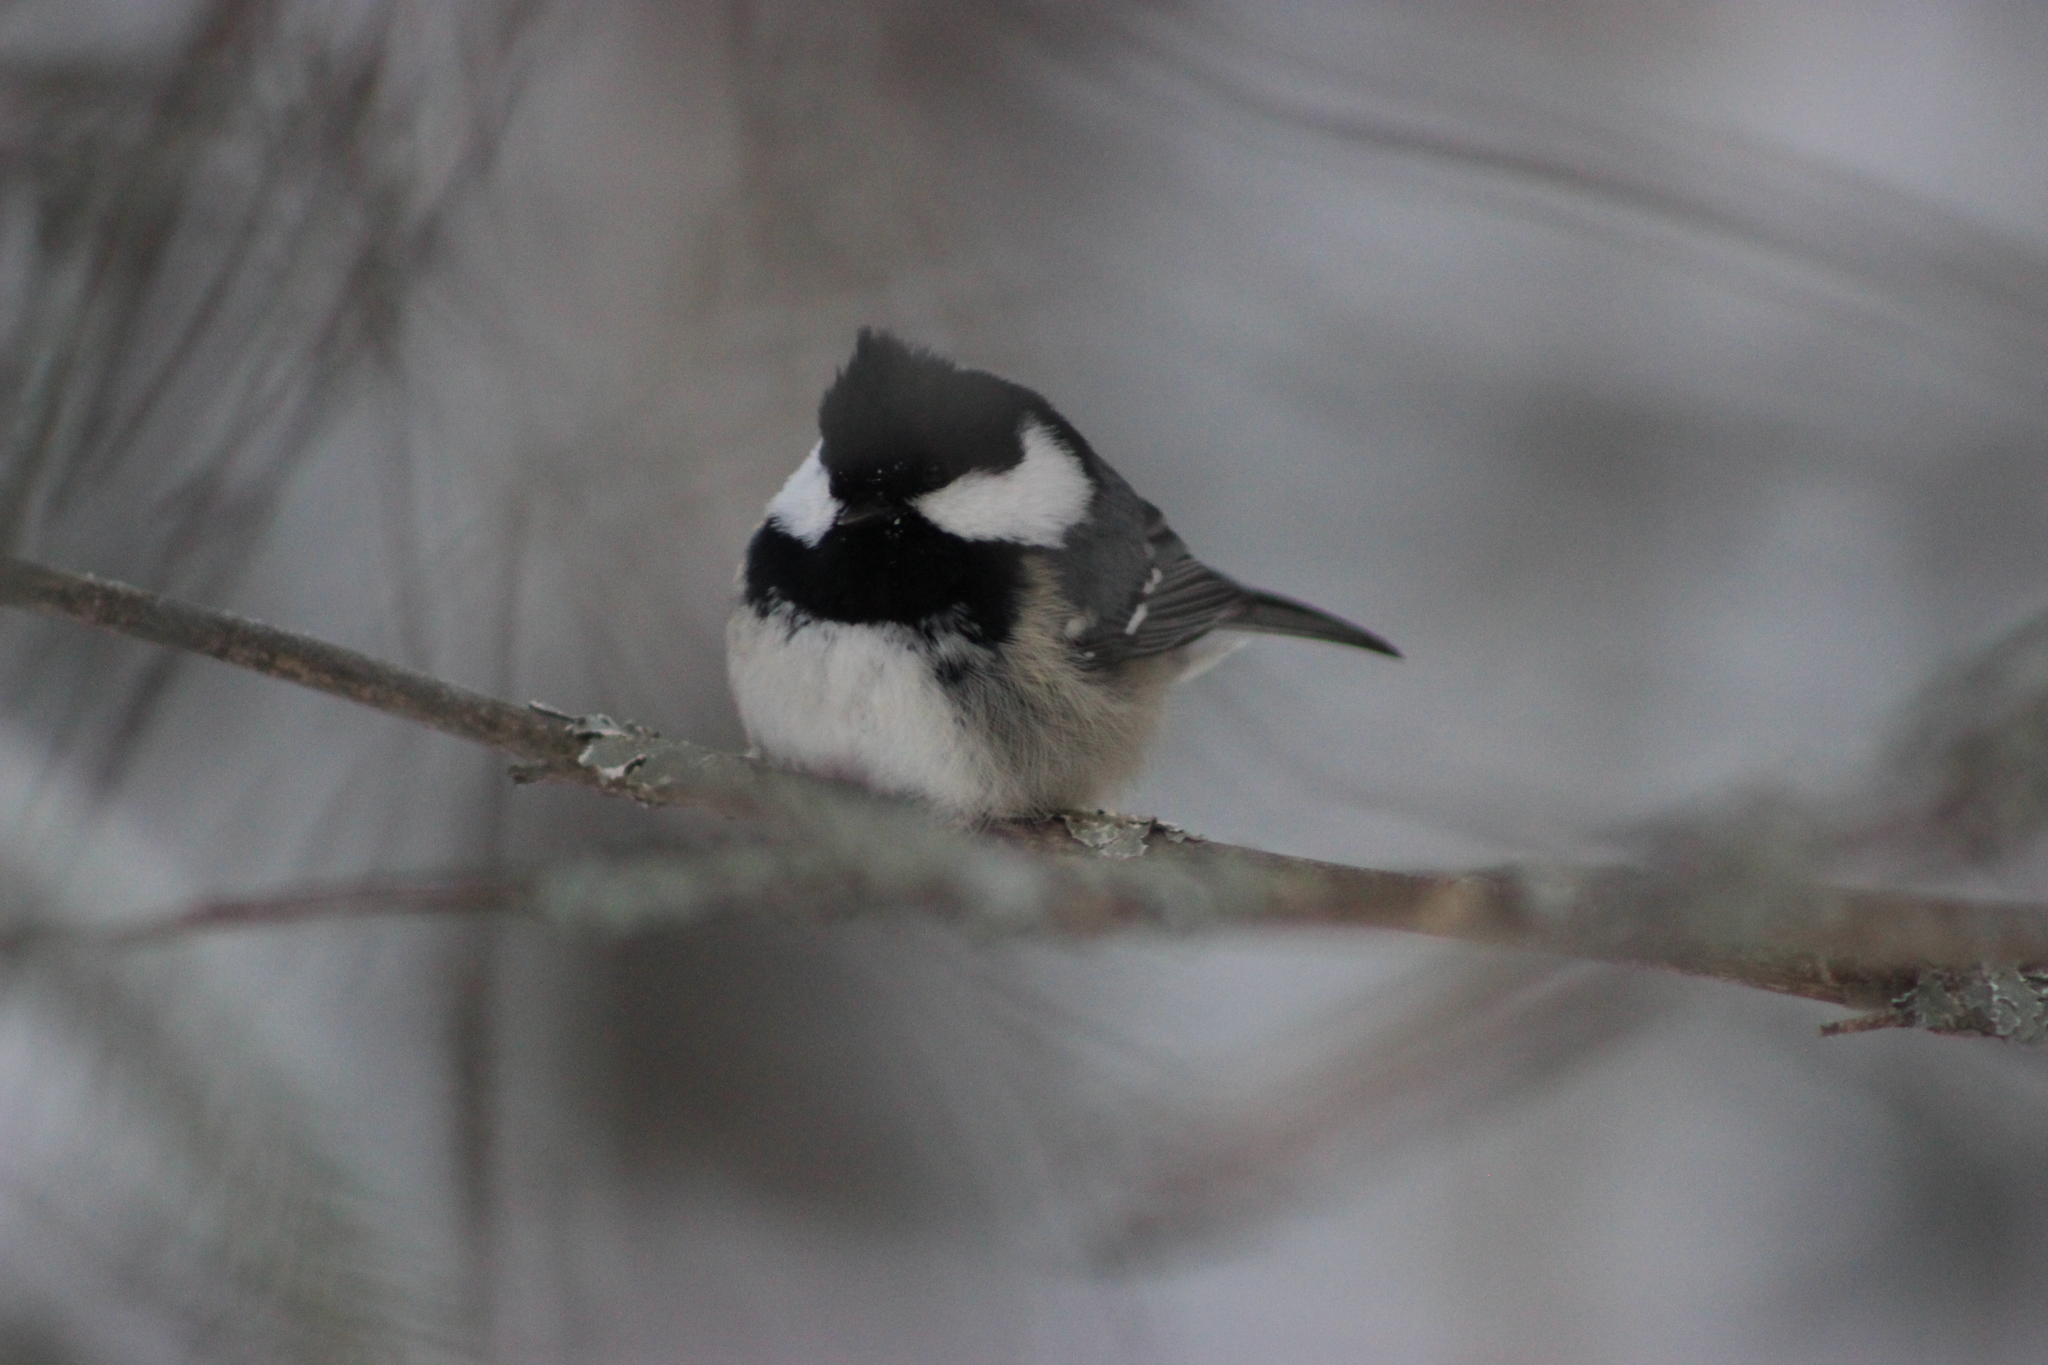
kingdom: Animalia
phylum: Chordata
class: Aves
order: Passeriformes
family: Paridae
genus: Periparus
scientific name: Periparus ater
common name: Coal tit
